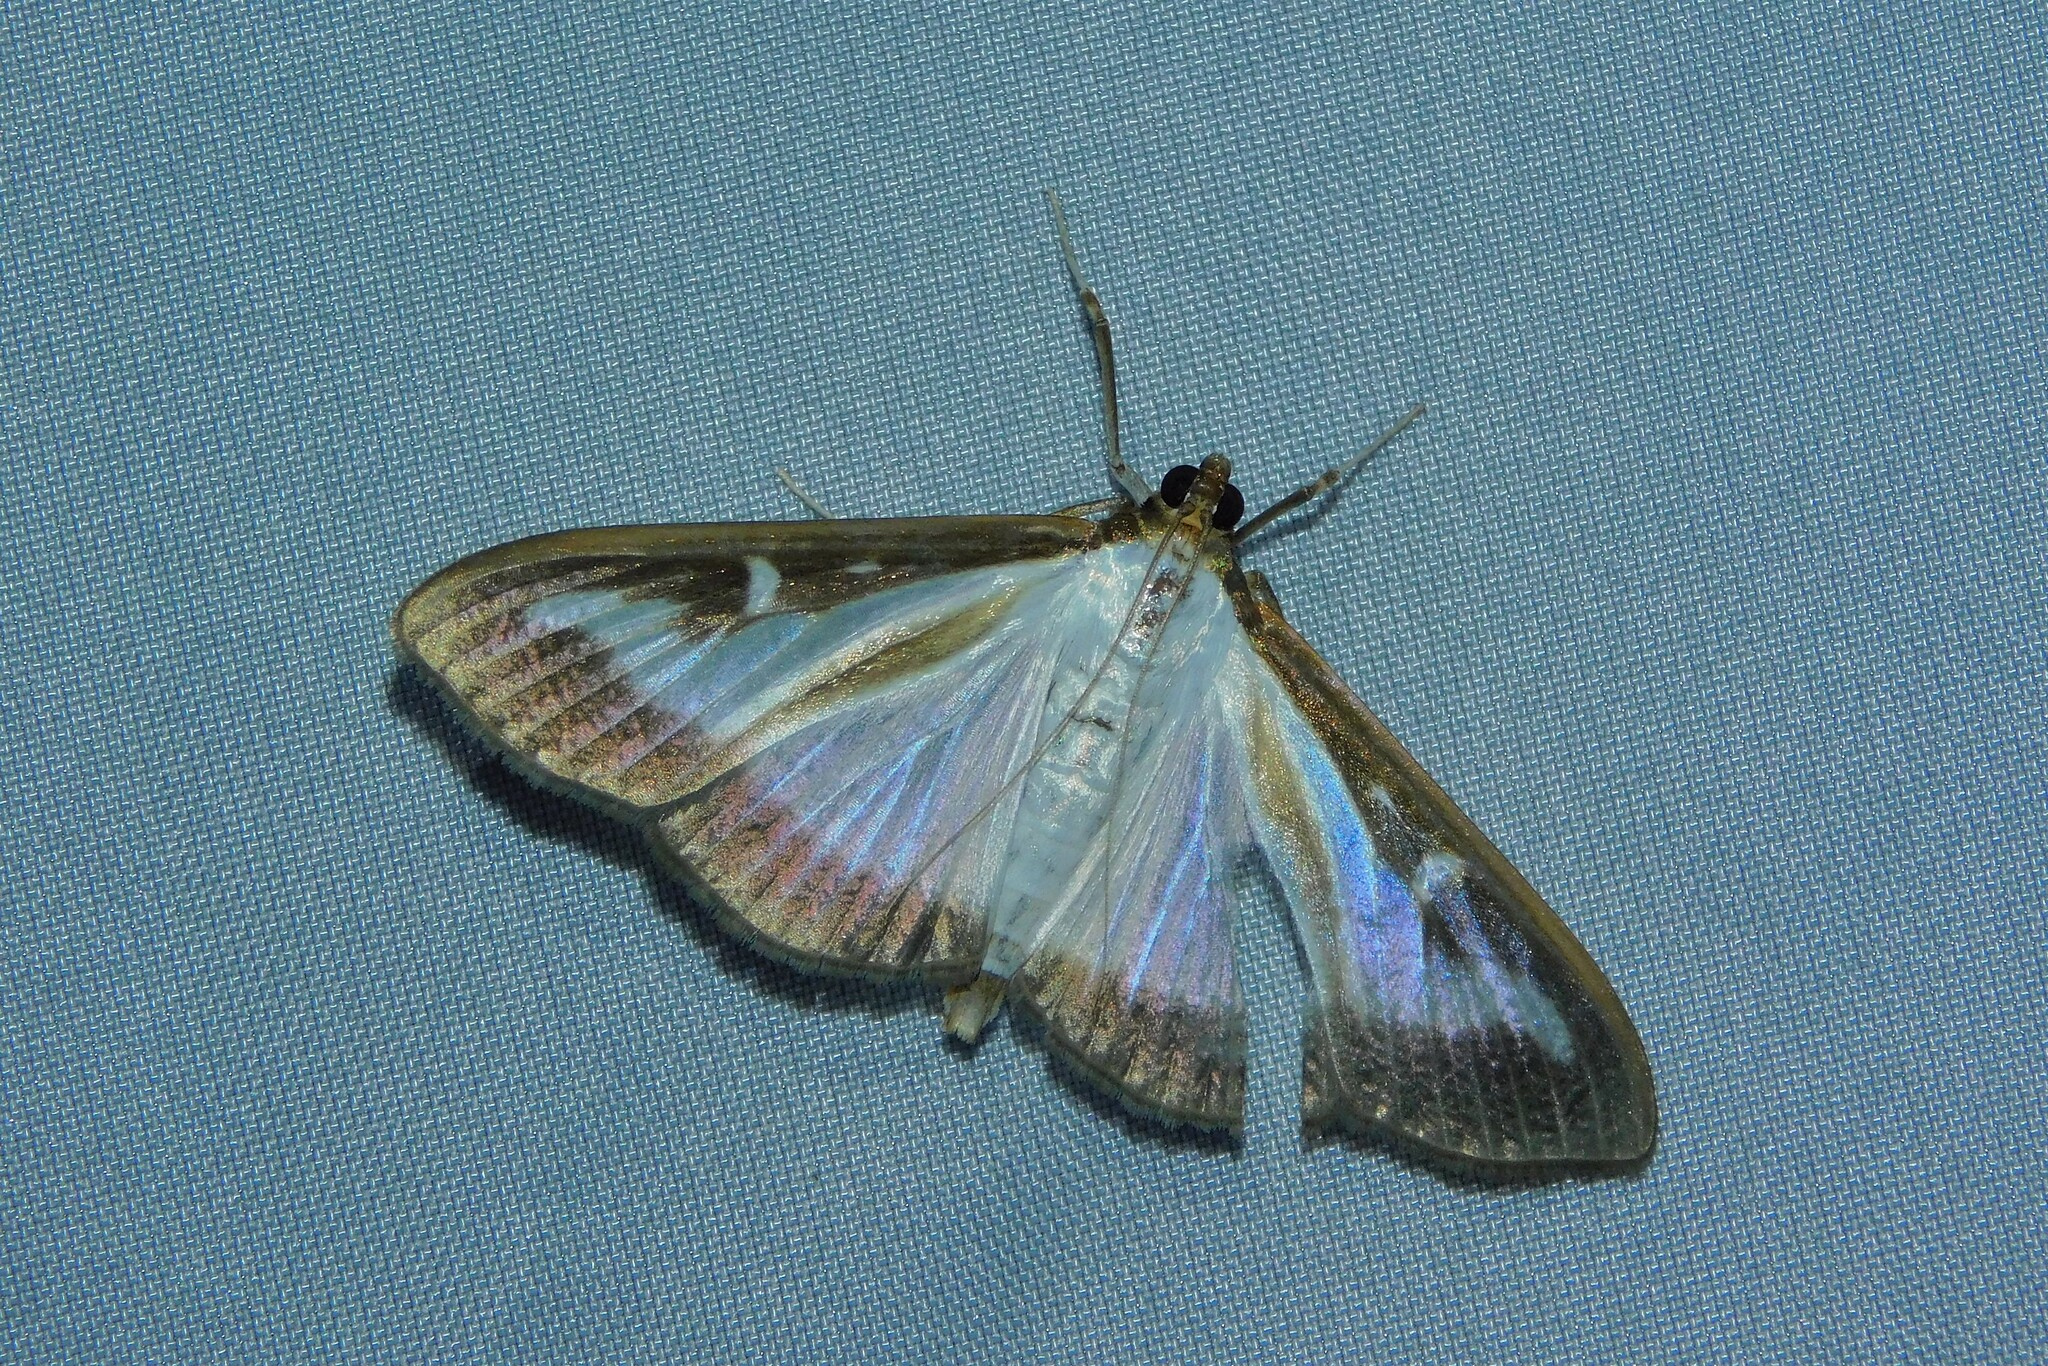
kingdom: Animalia
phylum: Arthropoda
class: Insecta
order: Lepidoptera
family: Crambidae
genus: Cydalima
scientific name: Cydalima perspectalis
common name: Box tree moth
